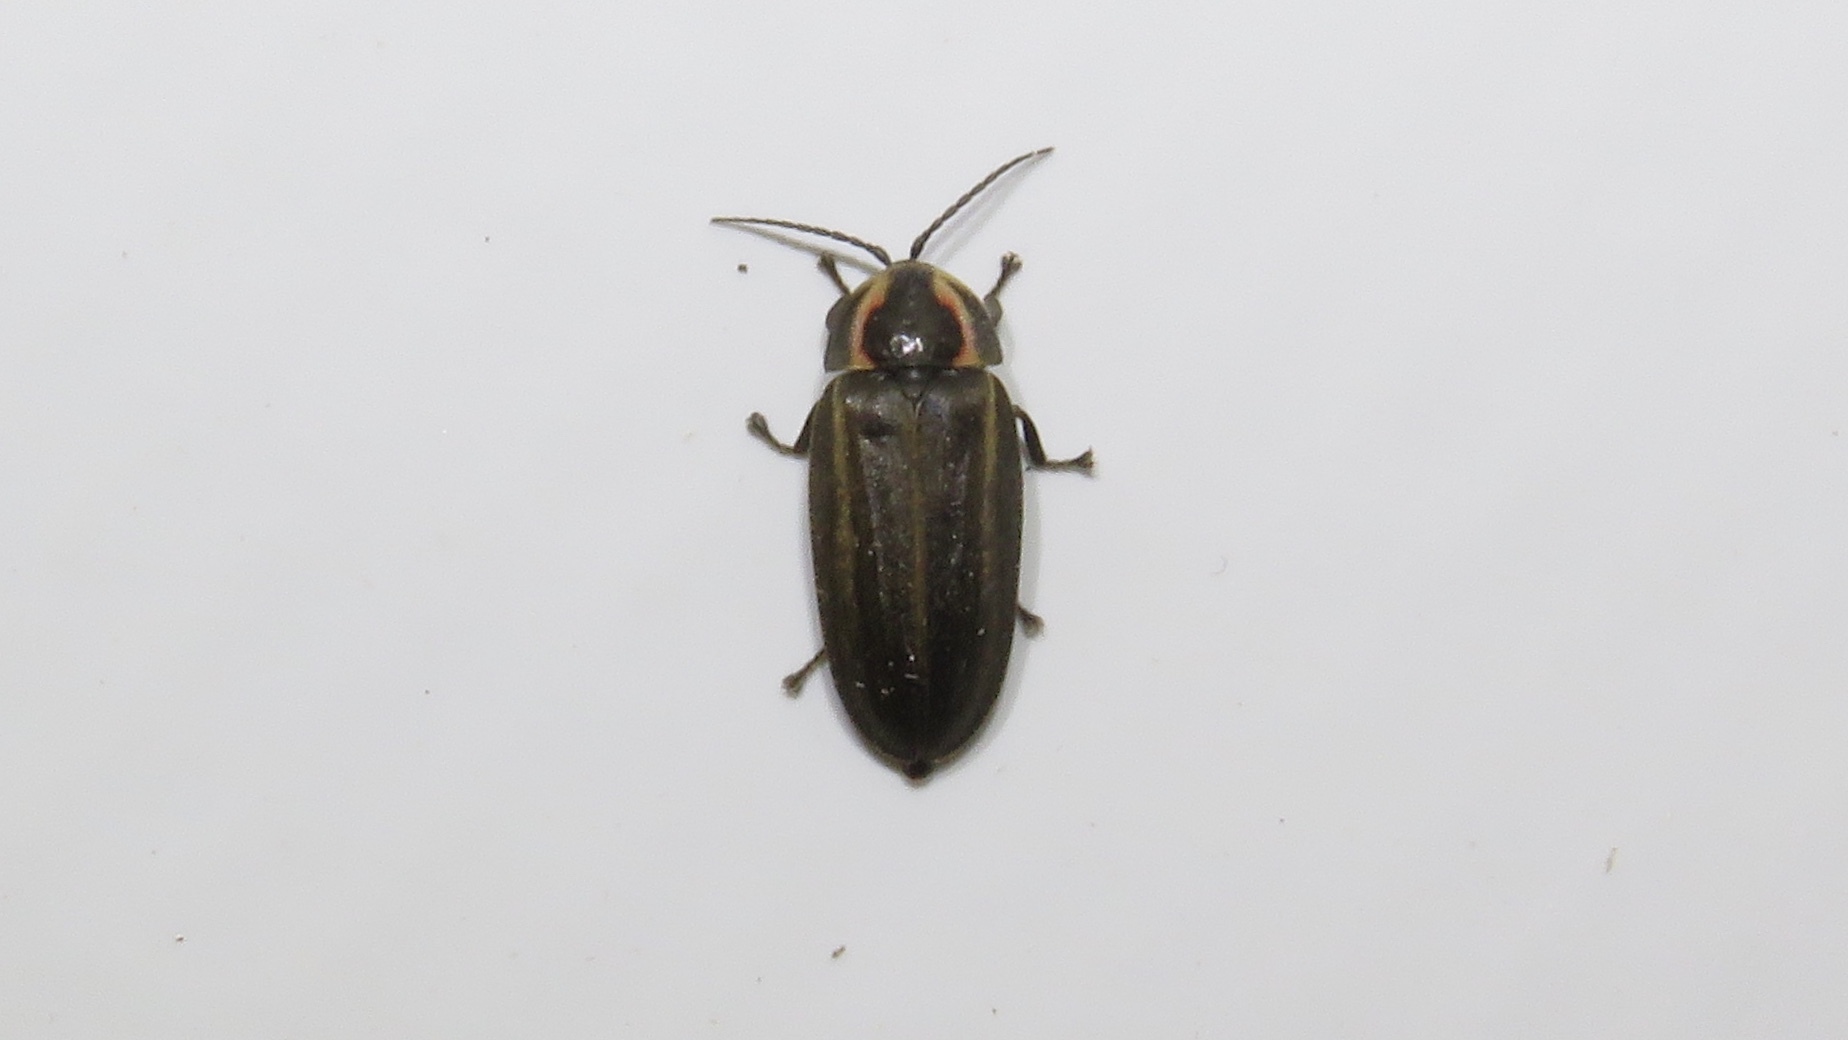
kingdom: Animalia
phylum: Arthropoda
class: Insecta
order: Coleoptera
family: Lampyridae
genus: Photinus
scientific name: Photinus corrusca
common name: Winter firefly
